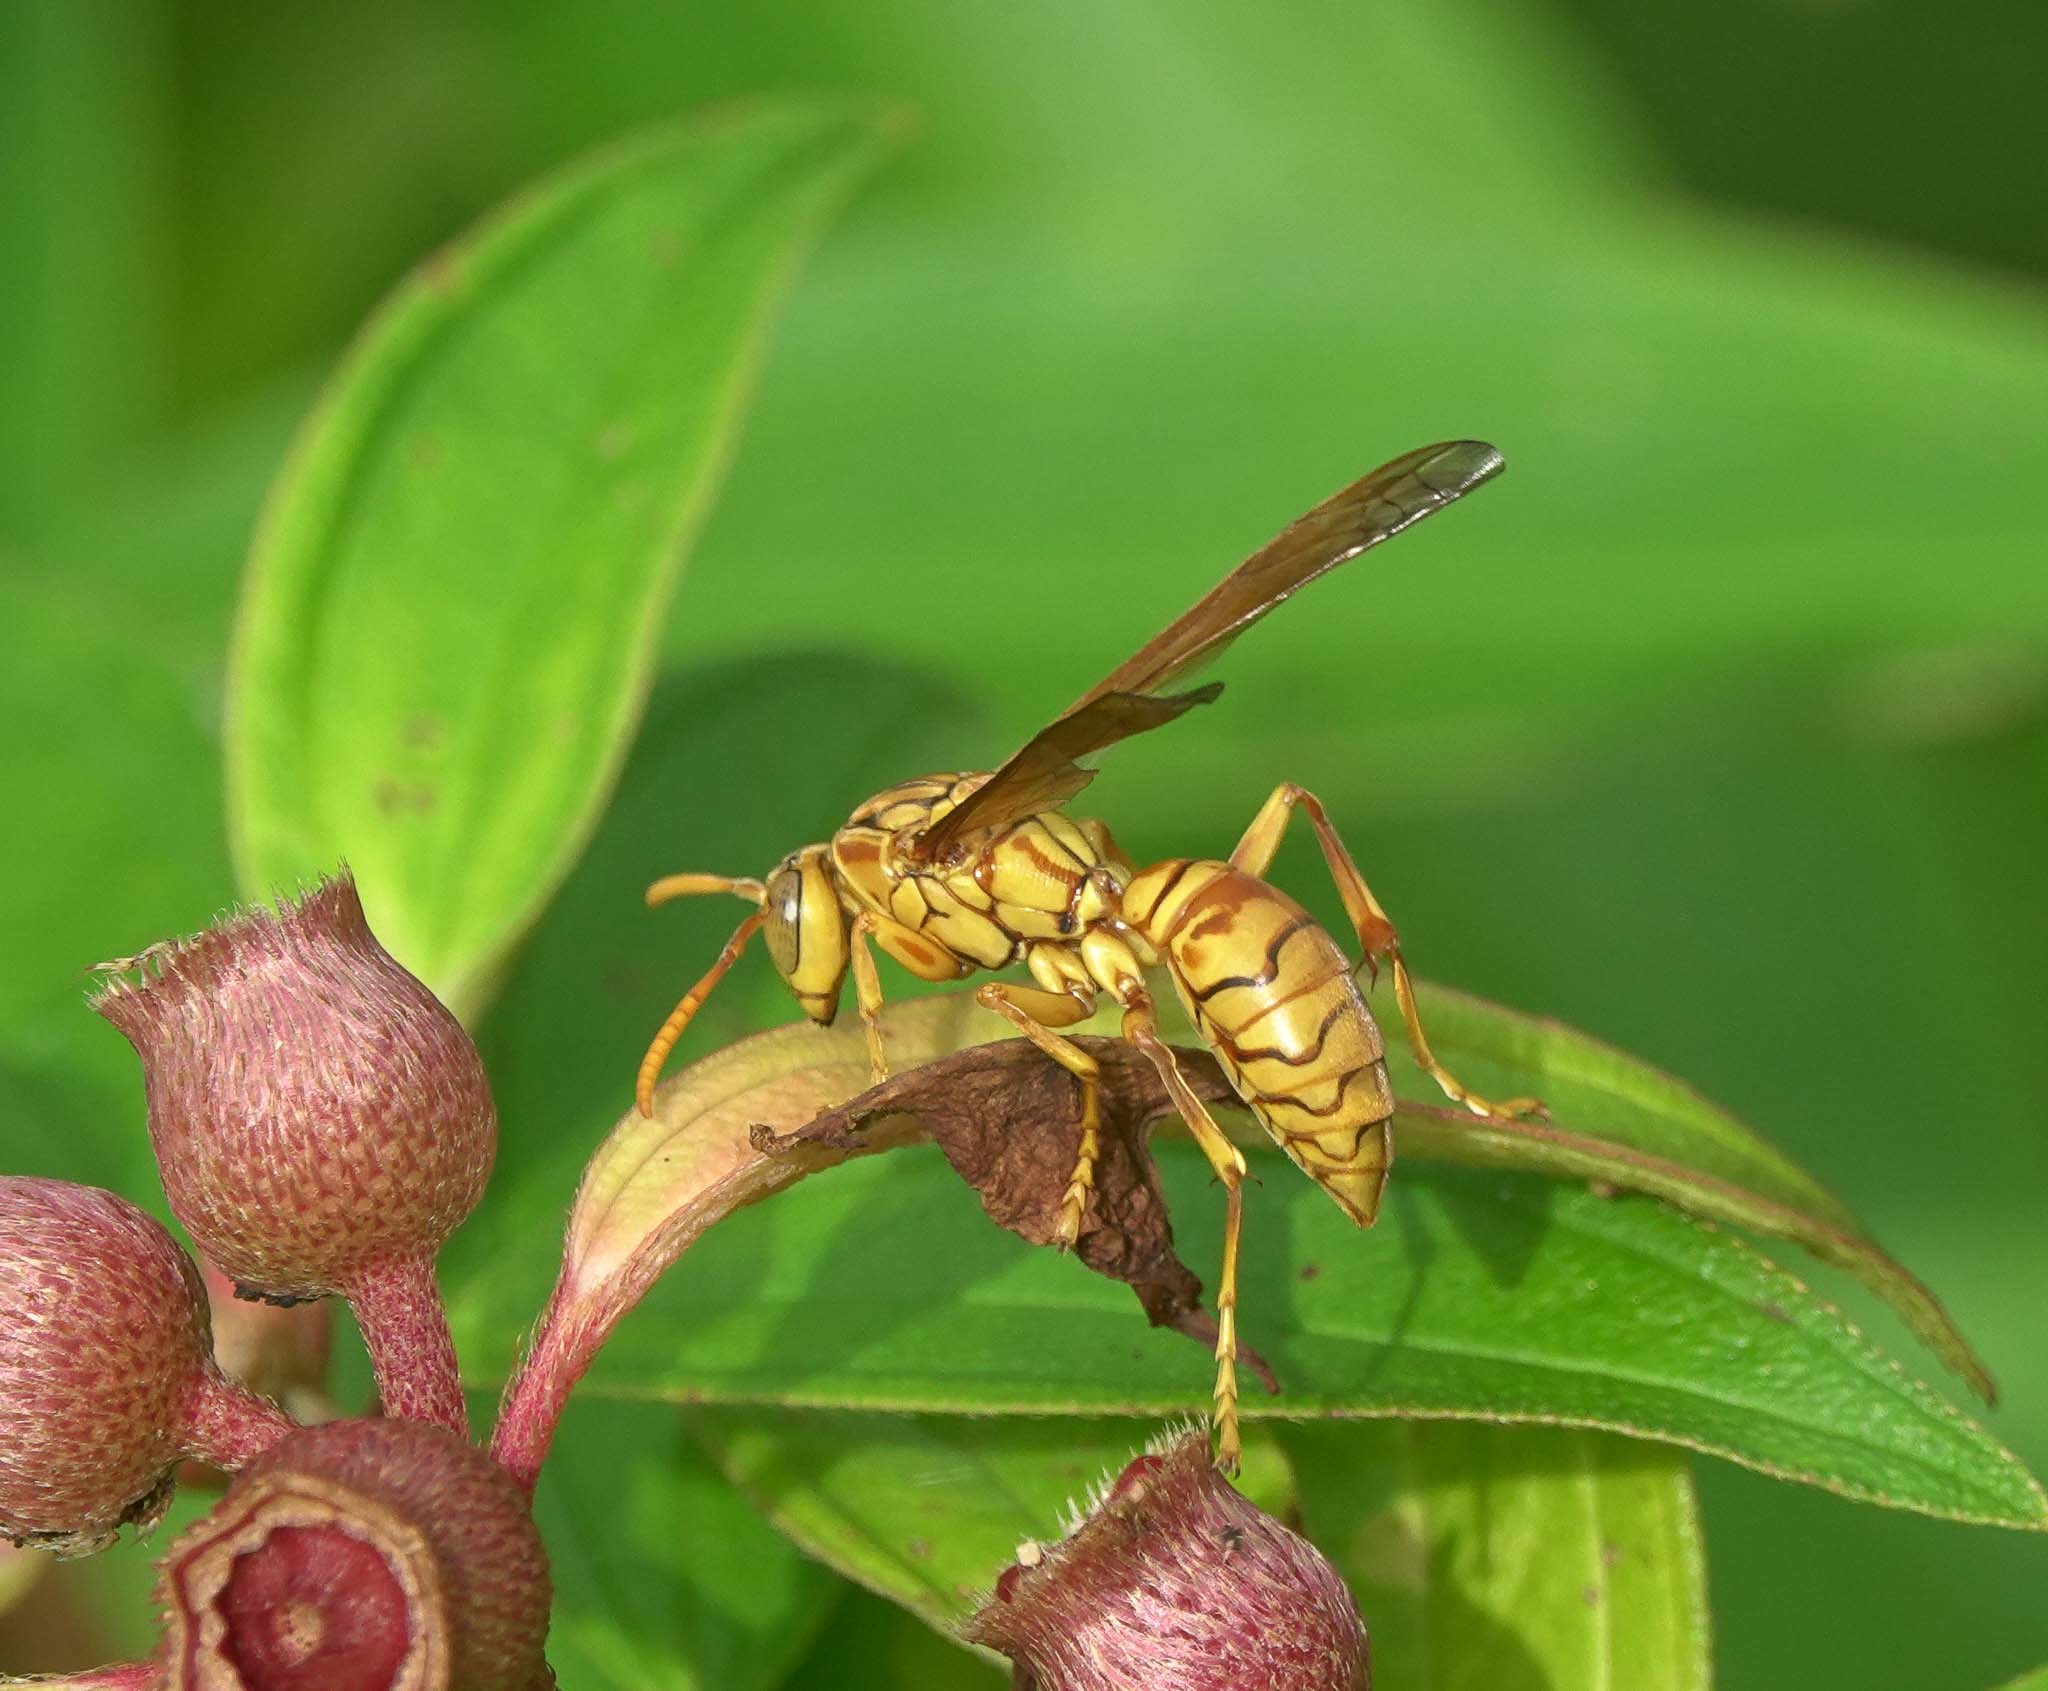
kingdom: Animalia
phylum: Arthropoda
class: Insecta
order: Hymenoptera
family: Eumenidae
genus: Polistes
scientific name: Polistes olivaceus
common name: Paper wasp
